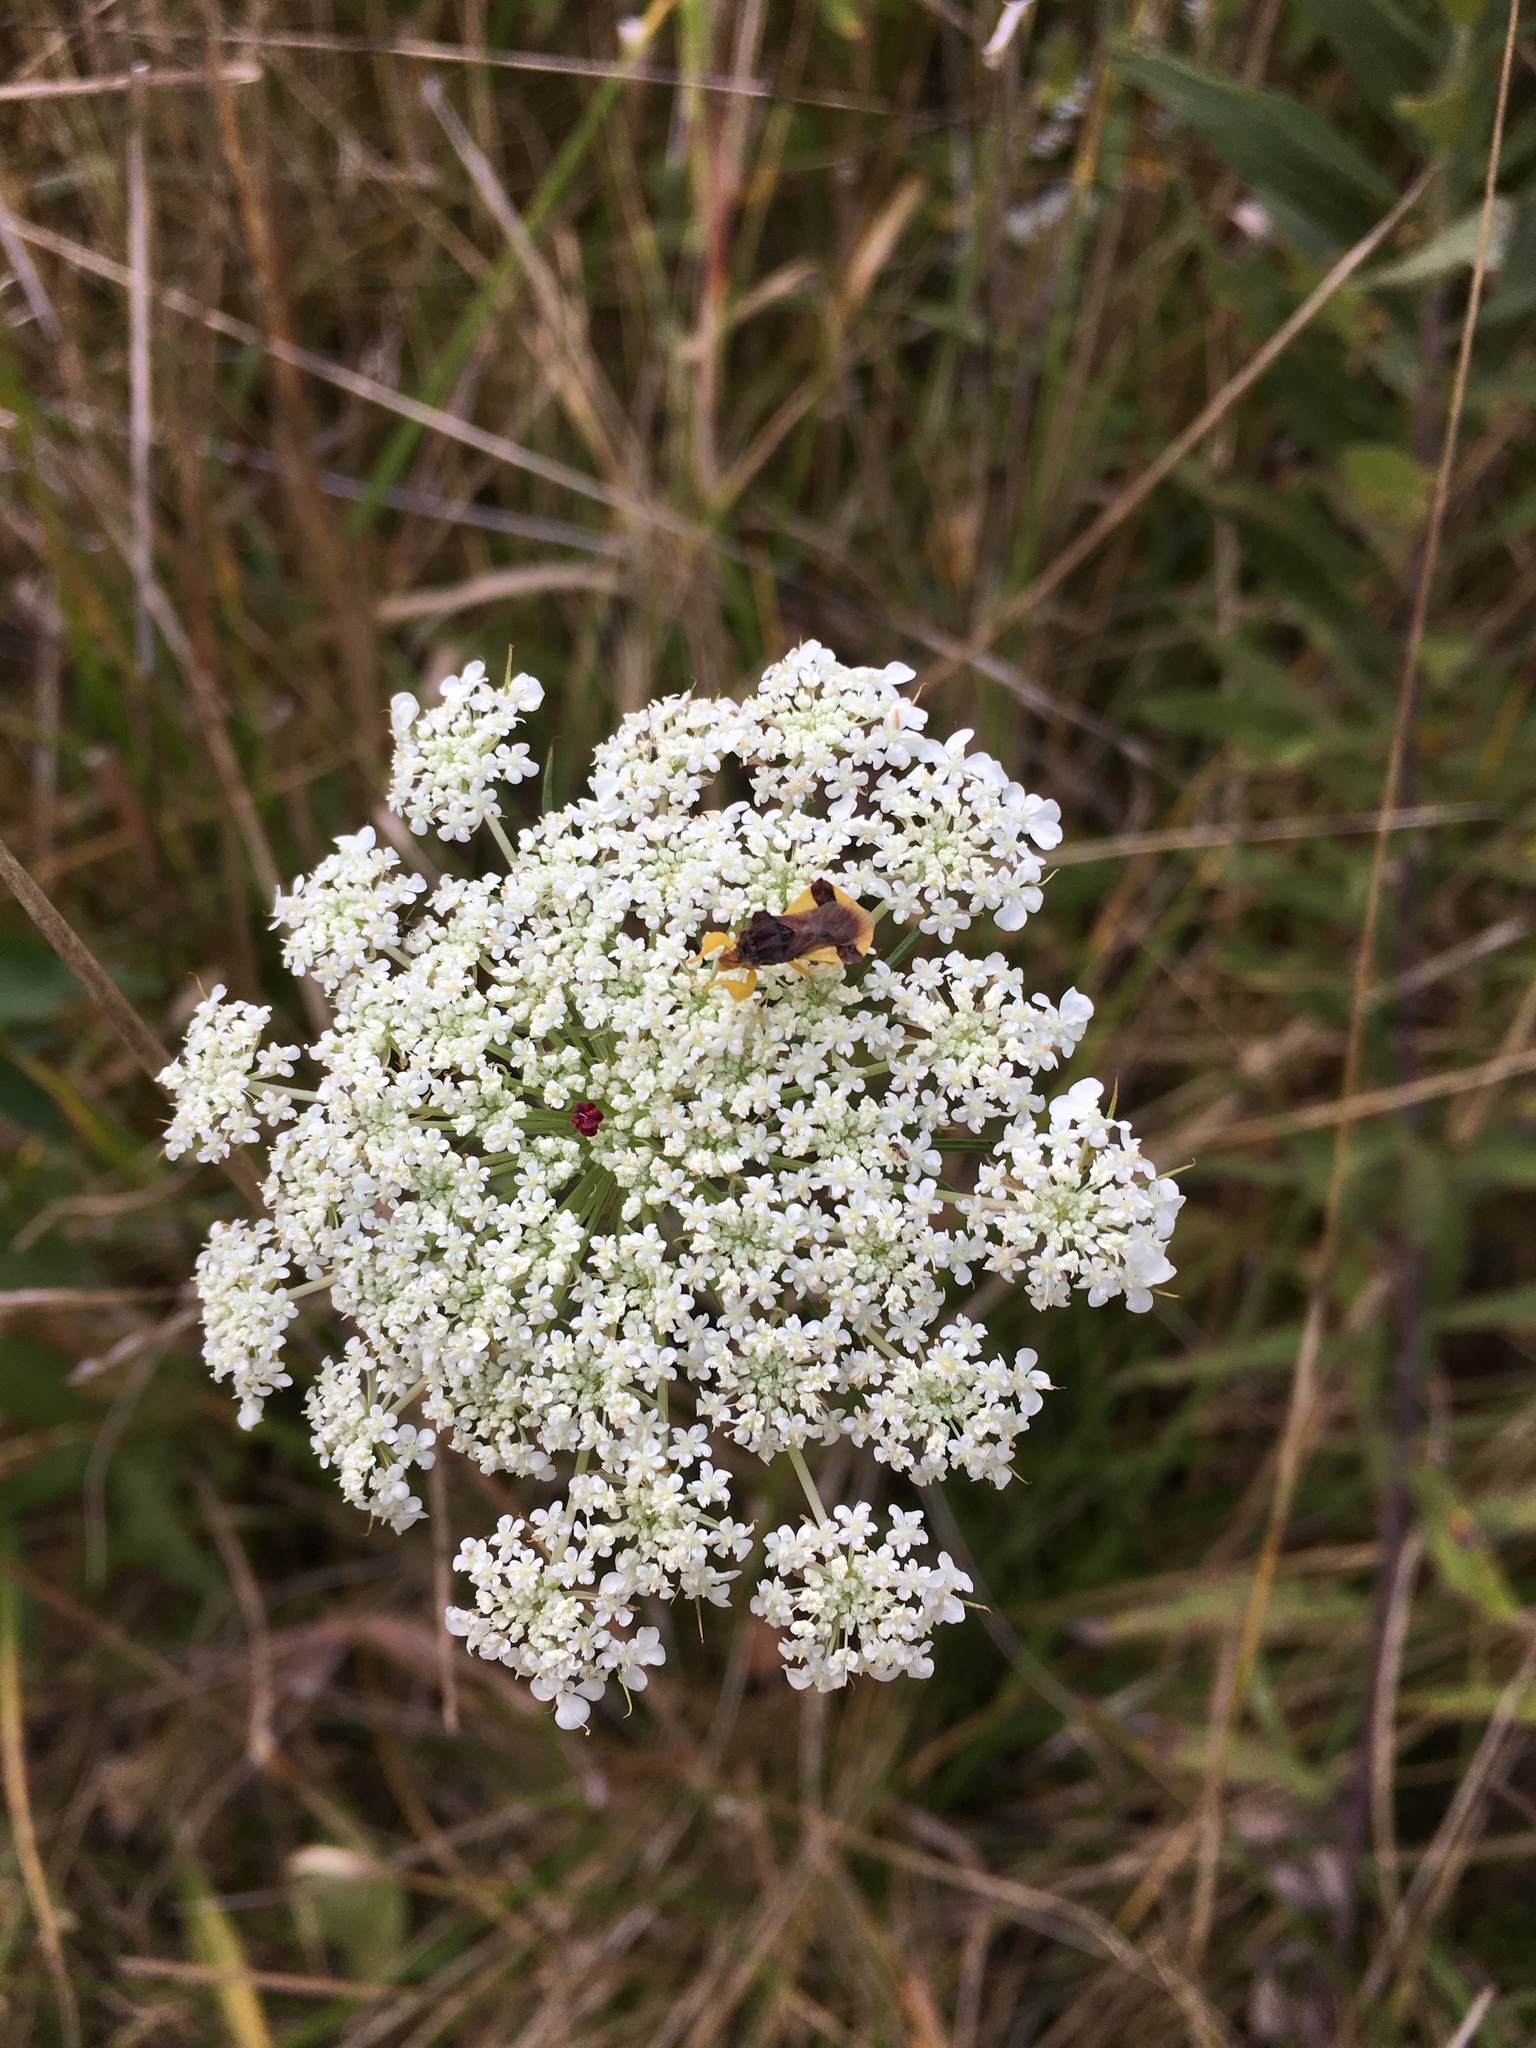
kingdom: Plantae
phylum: Tracheophyta
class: Magnoliopsida
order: Apiales
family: Apiaceae
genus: Daucus
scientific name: Daucus carota
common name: Wild carrot
